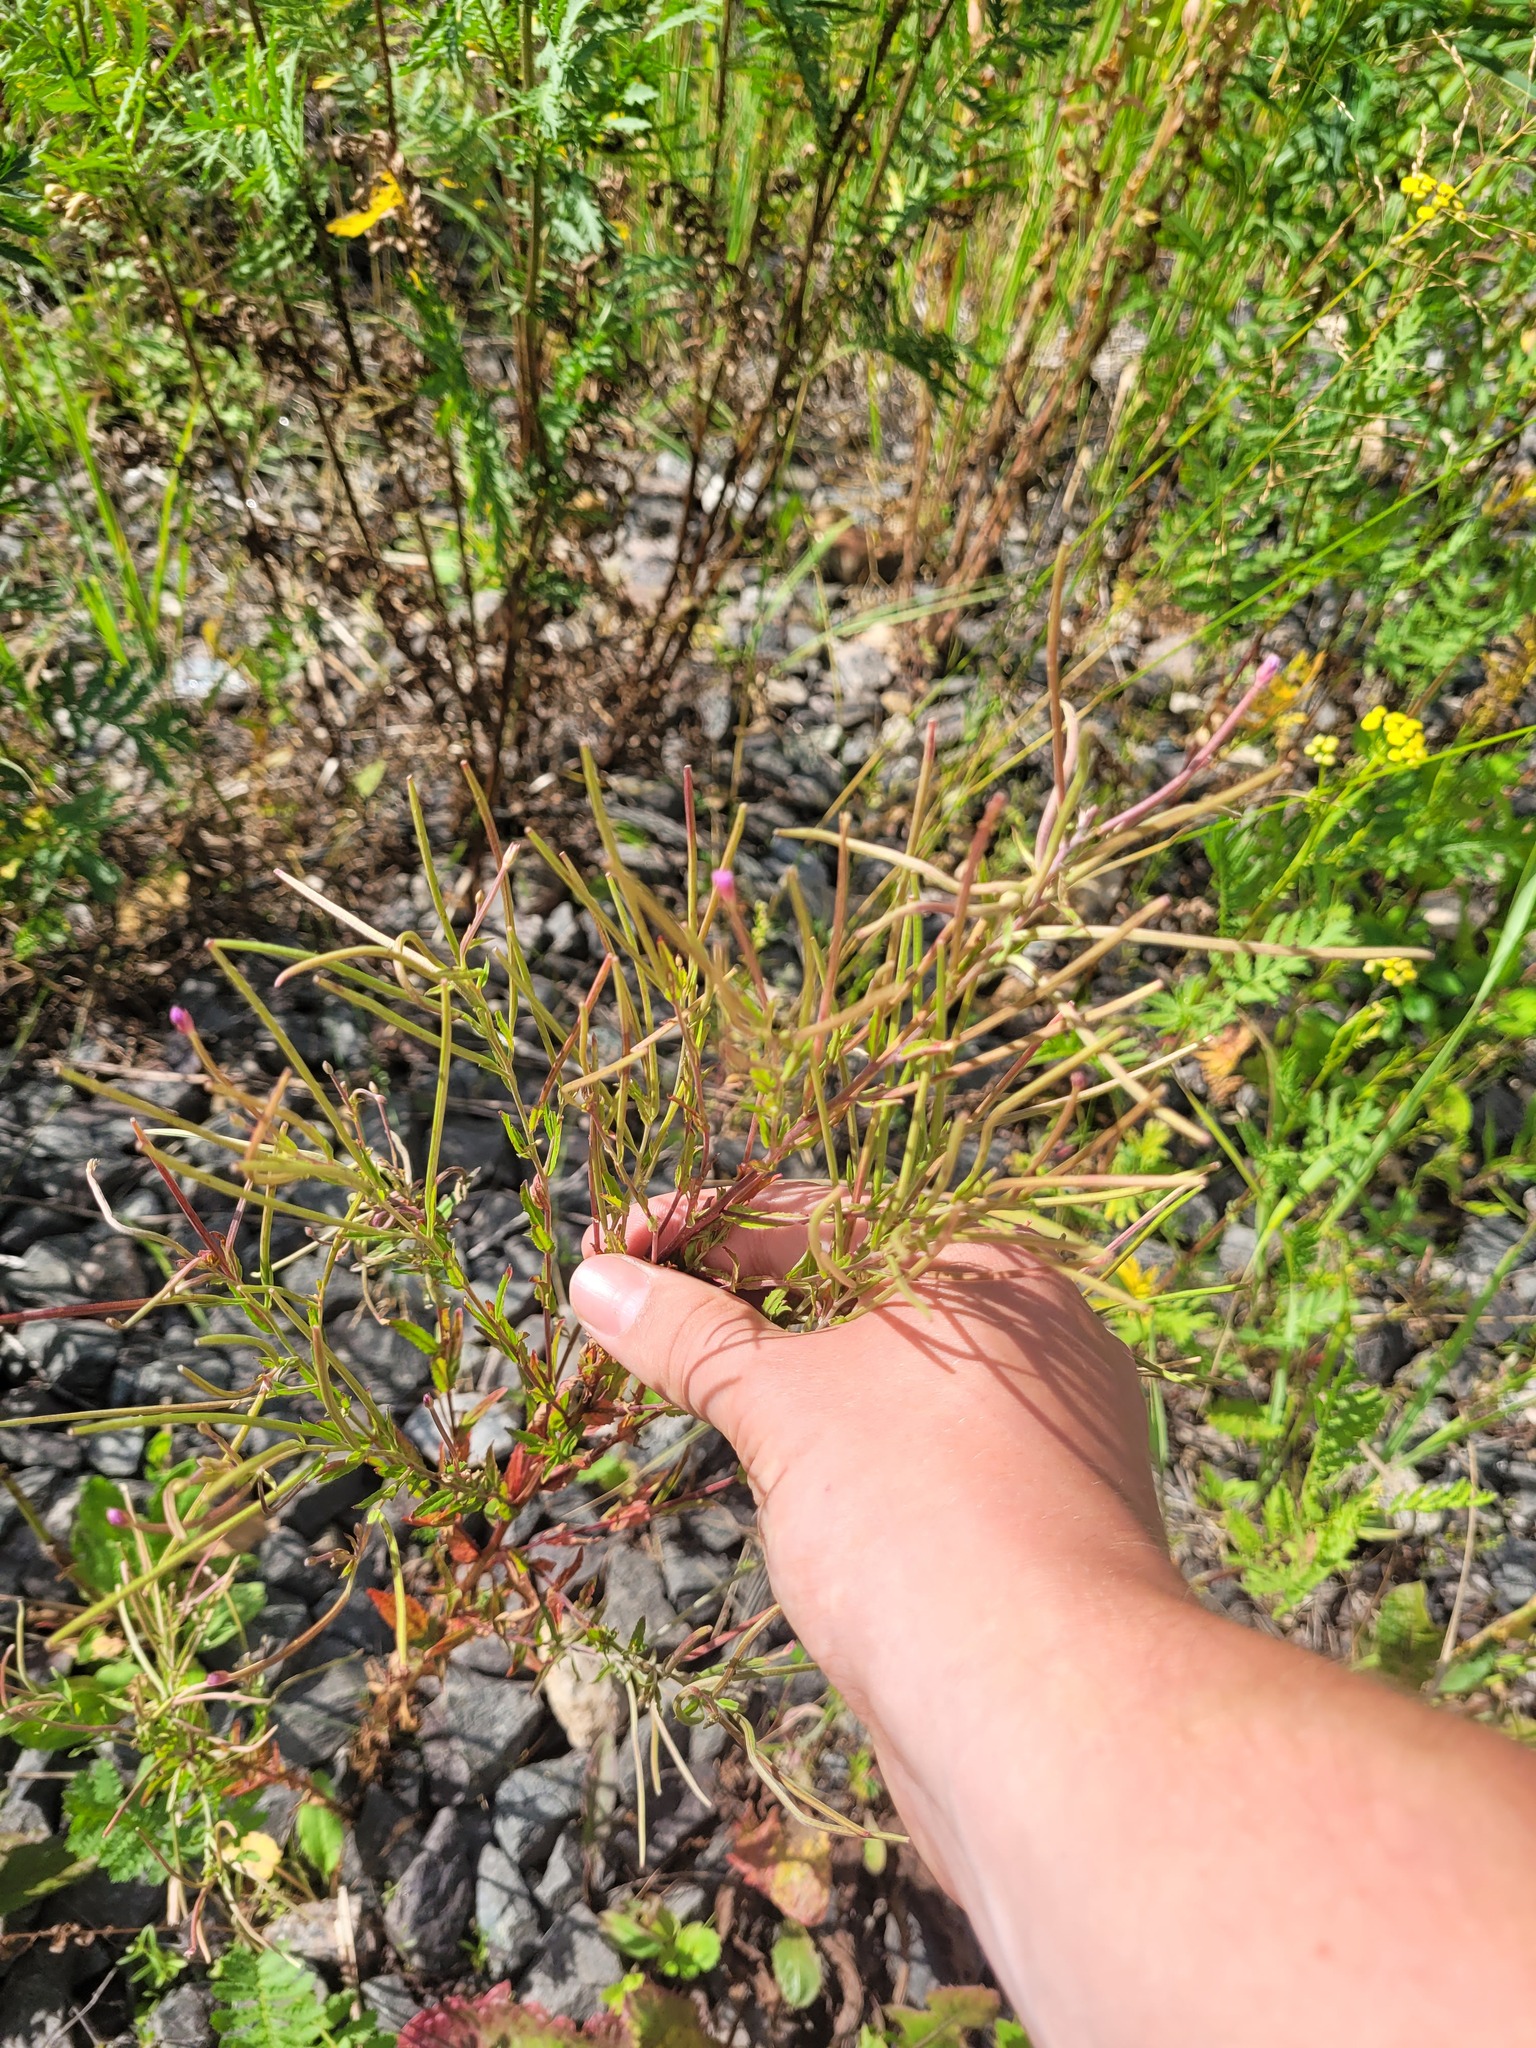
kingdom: Plantae
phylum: Tracheophyta
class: Magnoliopsida
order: Myrtales
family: Onagraceae
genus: Epilobium
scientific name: Epilobium tetragonum
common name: Square-stemmed willowherb
